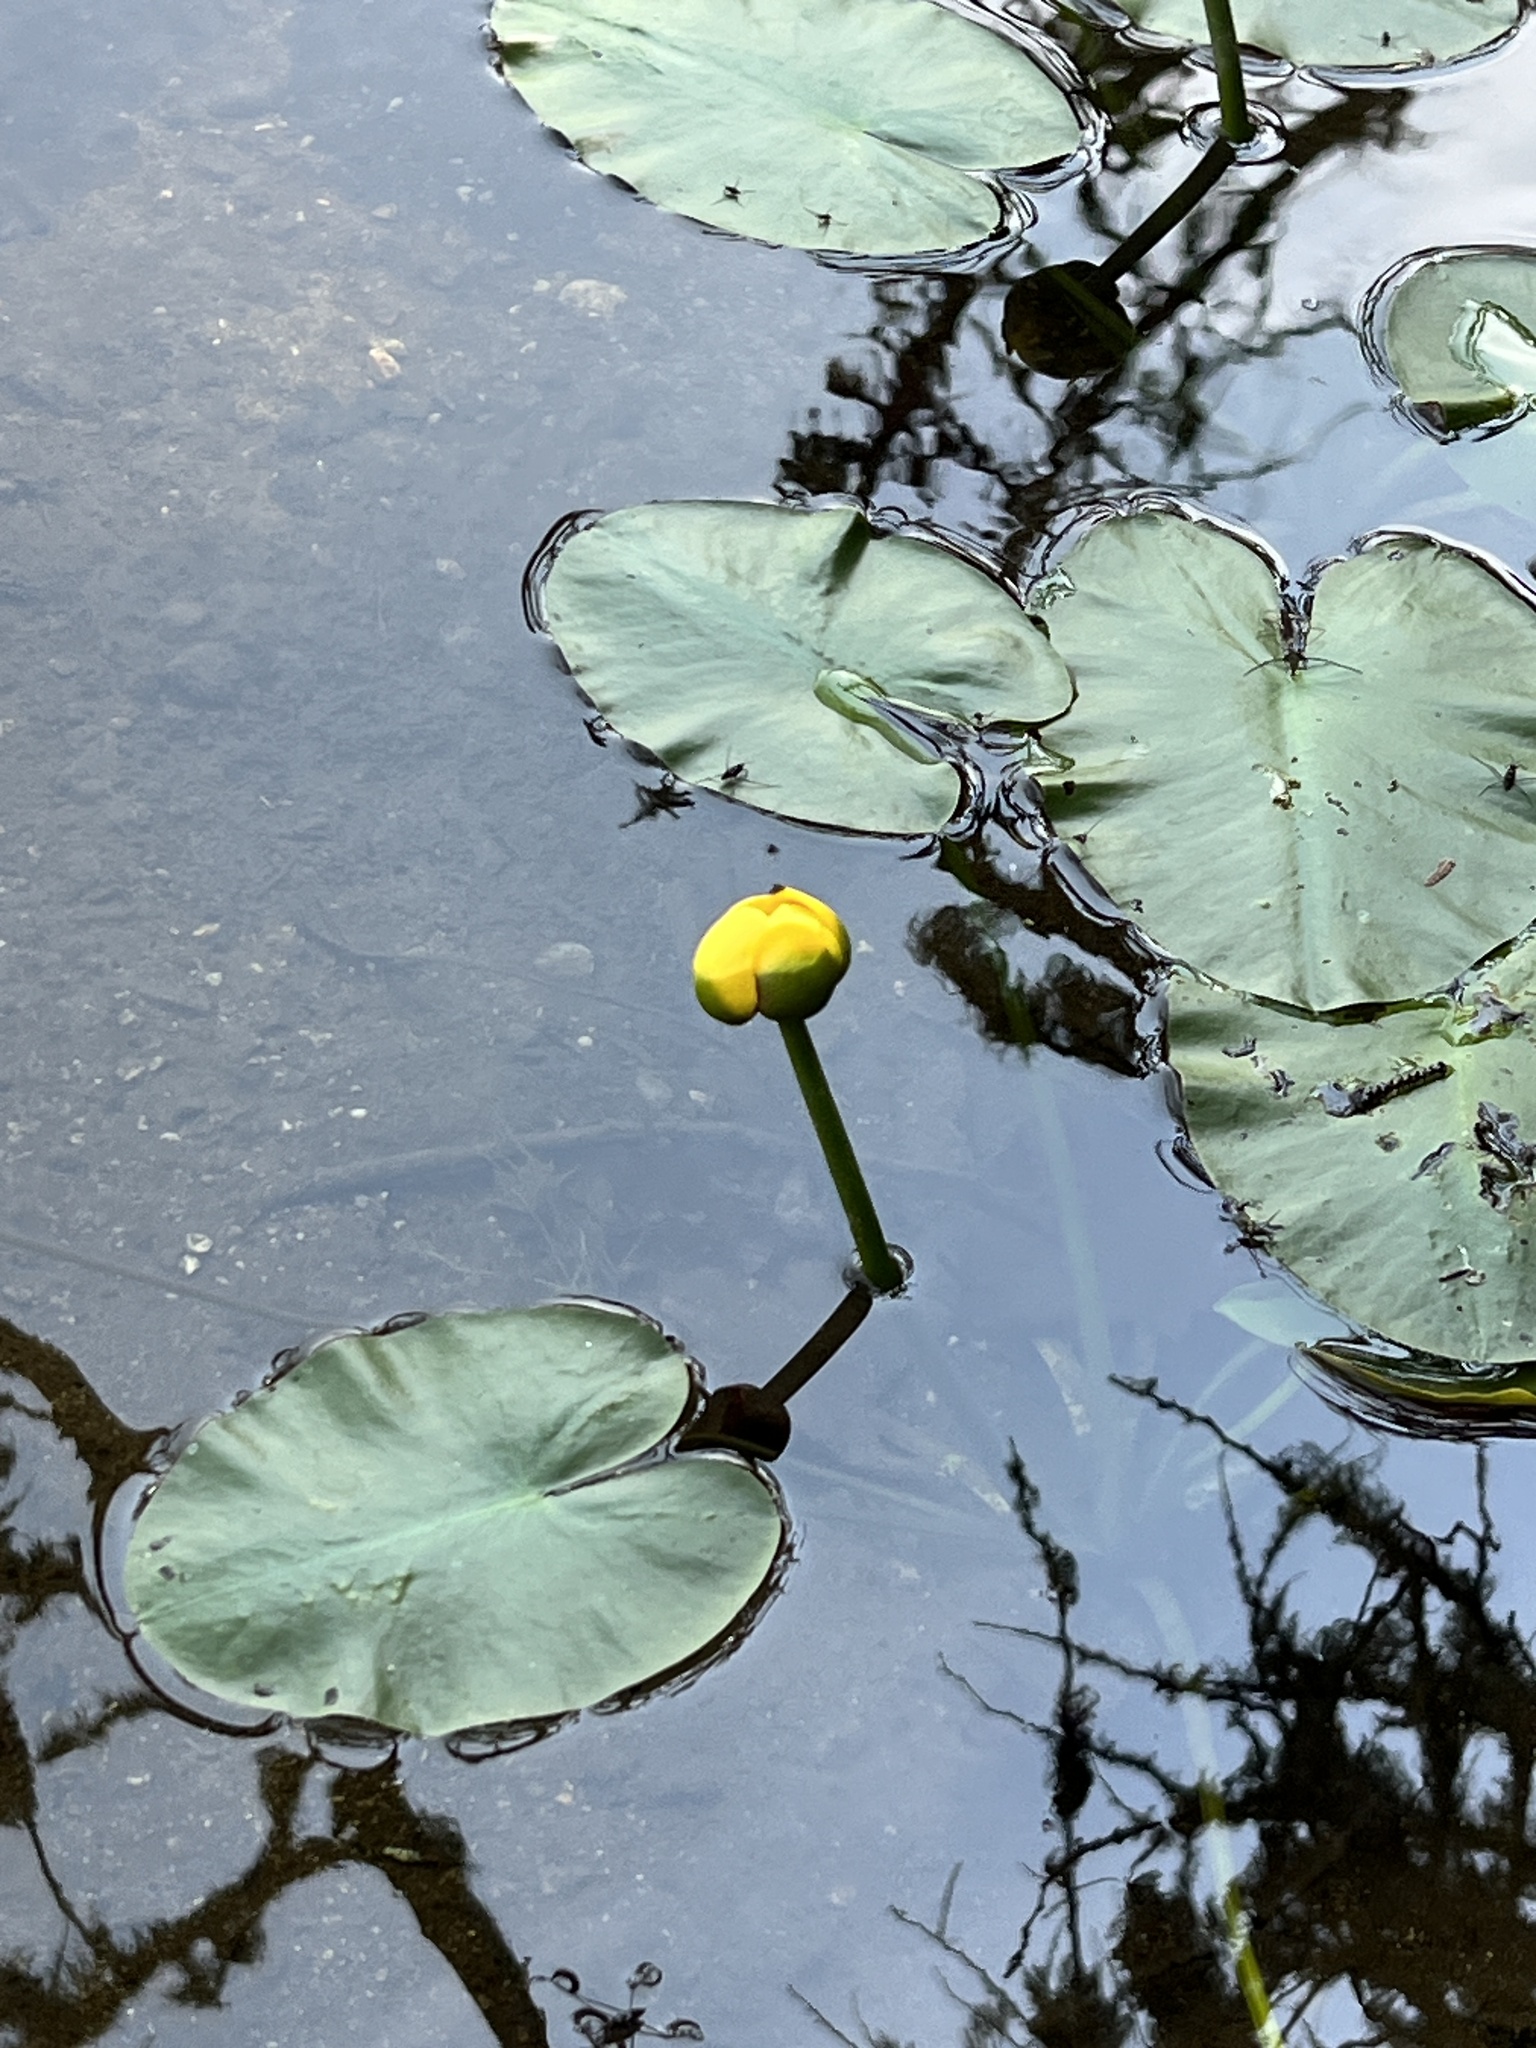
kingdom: Plantae
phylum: Tracheophyta
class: Magnoliopsida
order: Nymphaeales
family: Nymphaeaceae
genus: Nuphar
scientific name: Nuphar variegata
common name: Beaver-root
